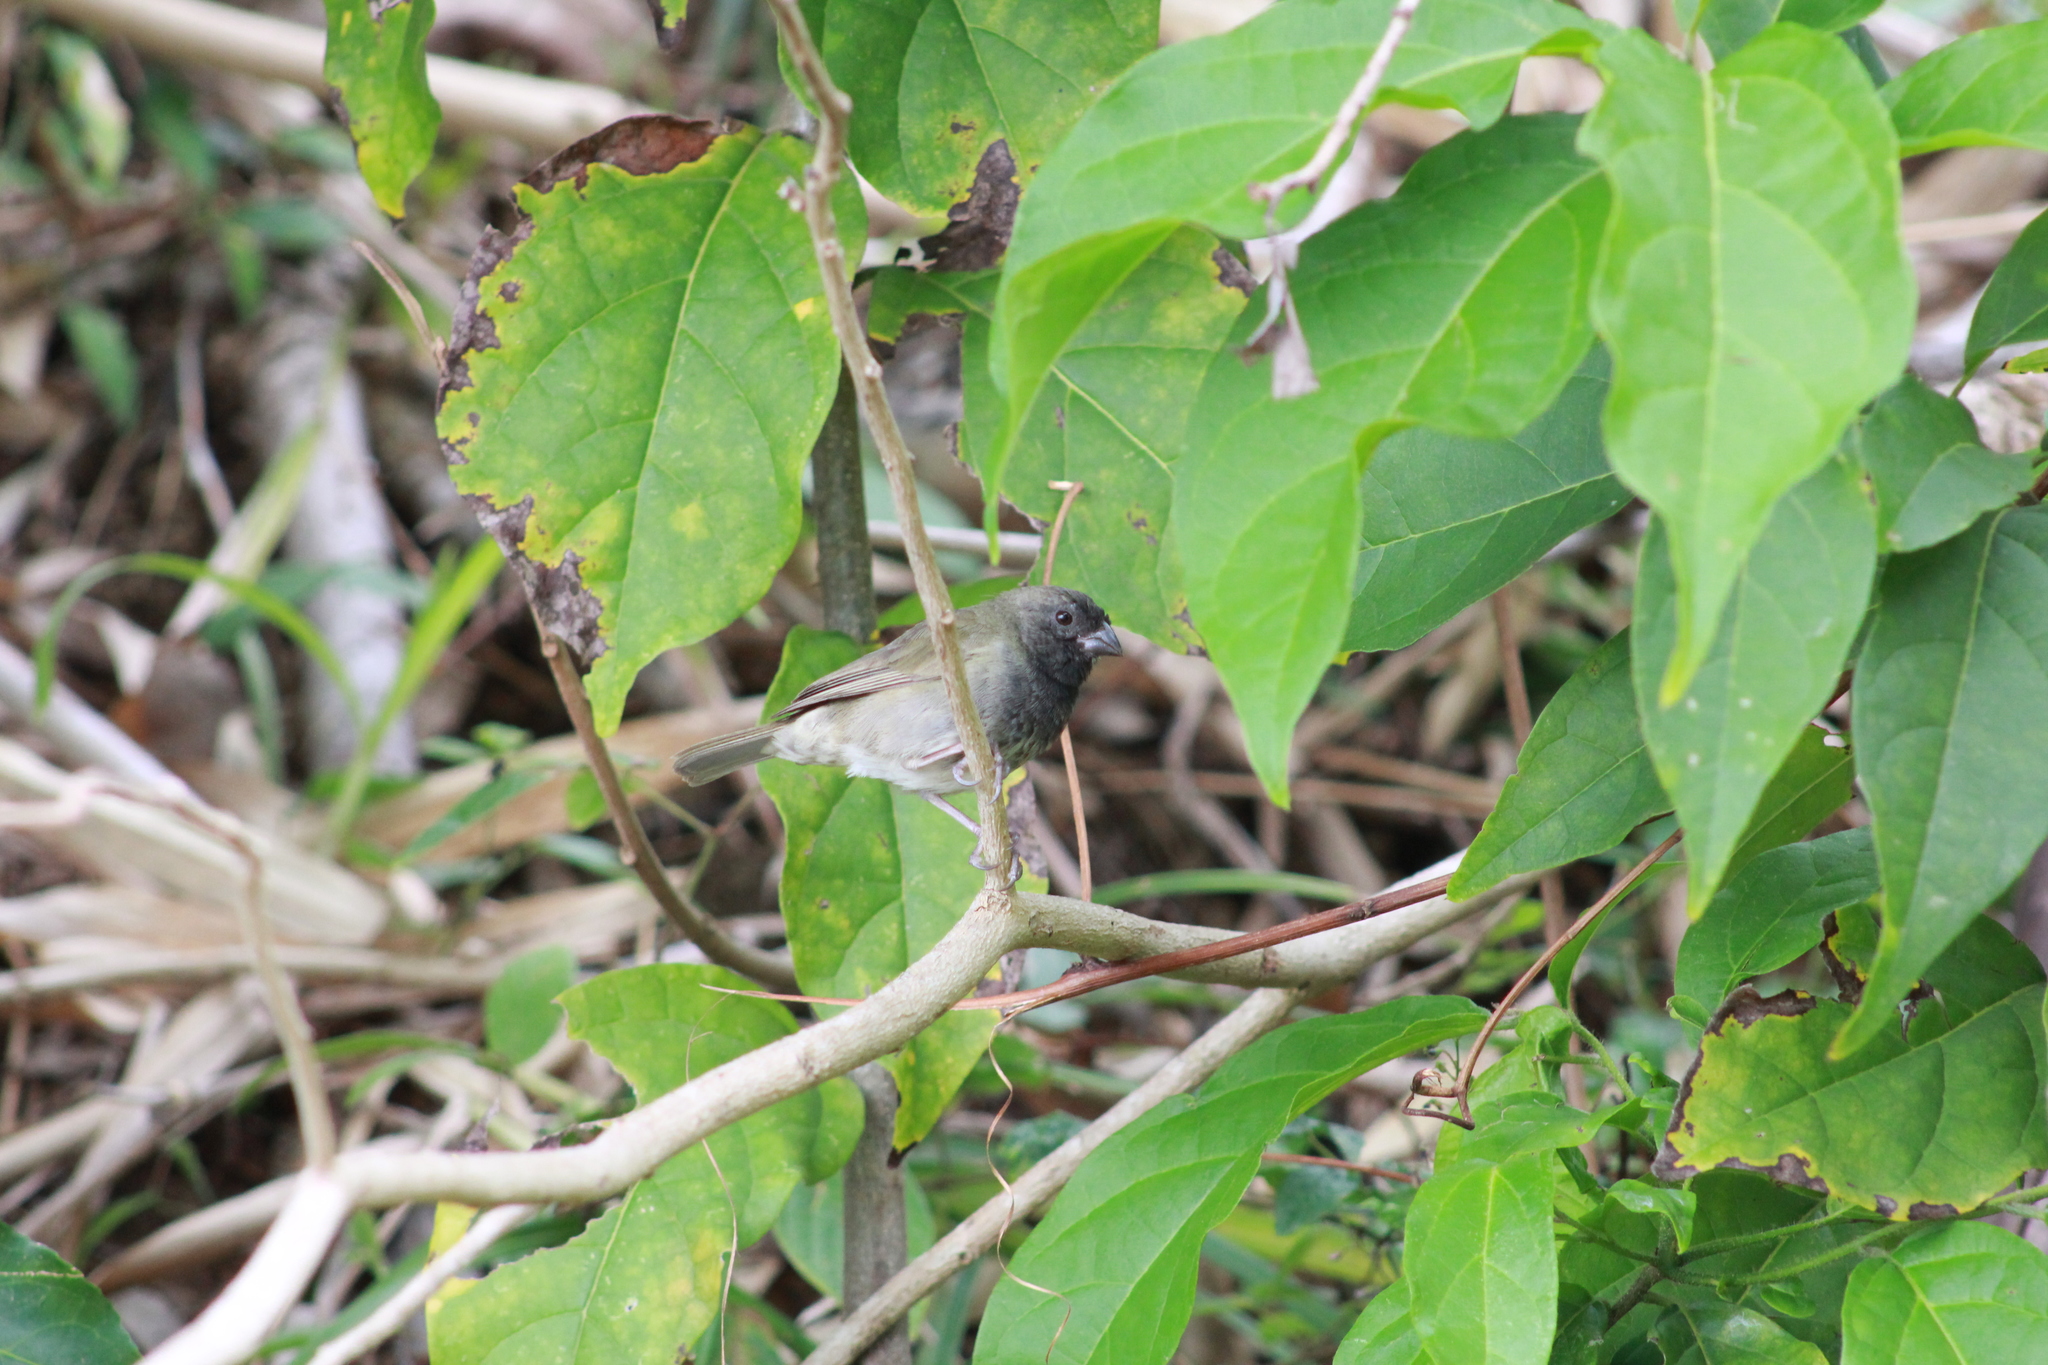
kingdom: Animalia
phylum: Chordata
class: Aves
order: Passeriformes
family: Thraupidae
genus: Melanospiza
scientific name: Melanospiza bicolor
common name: Black-faced grassquit
